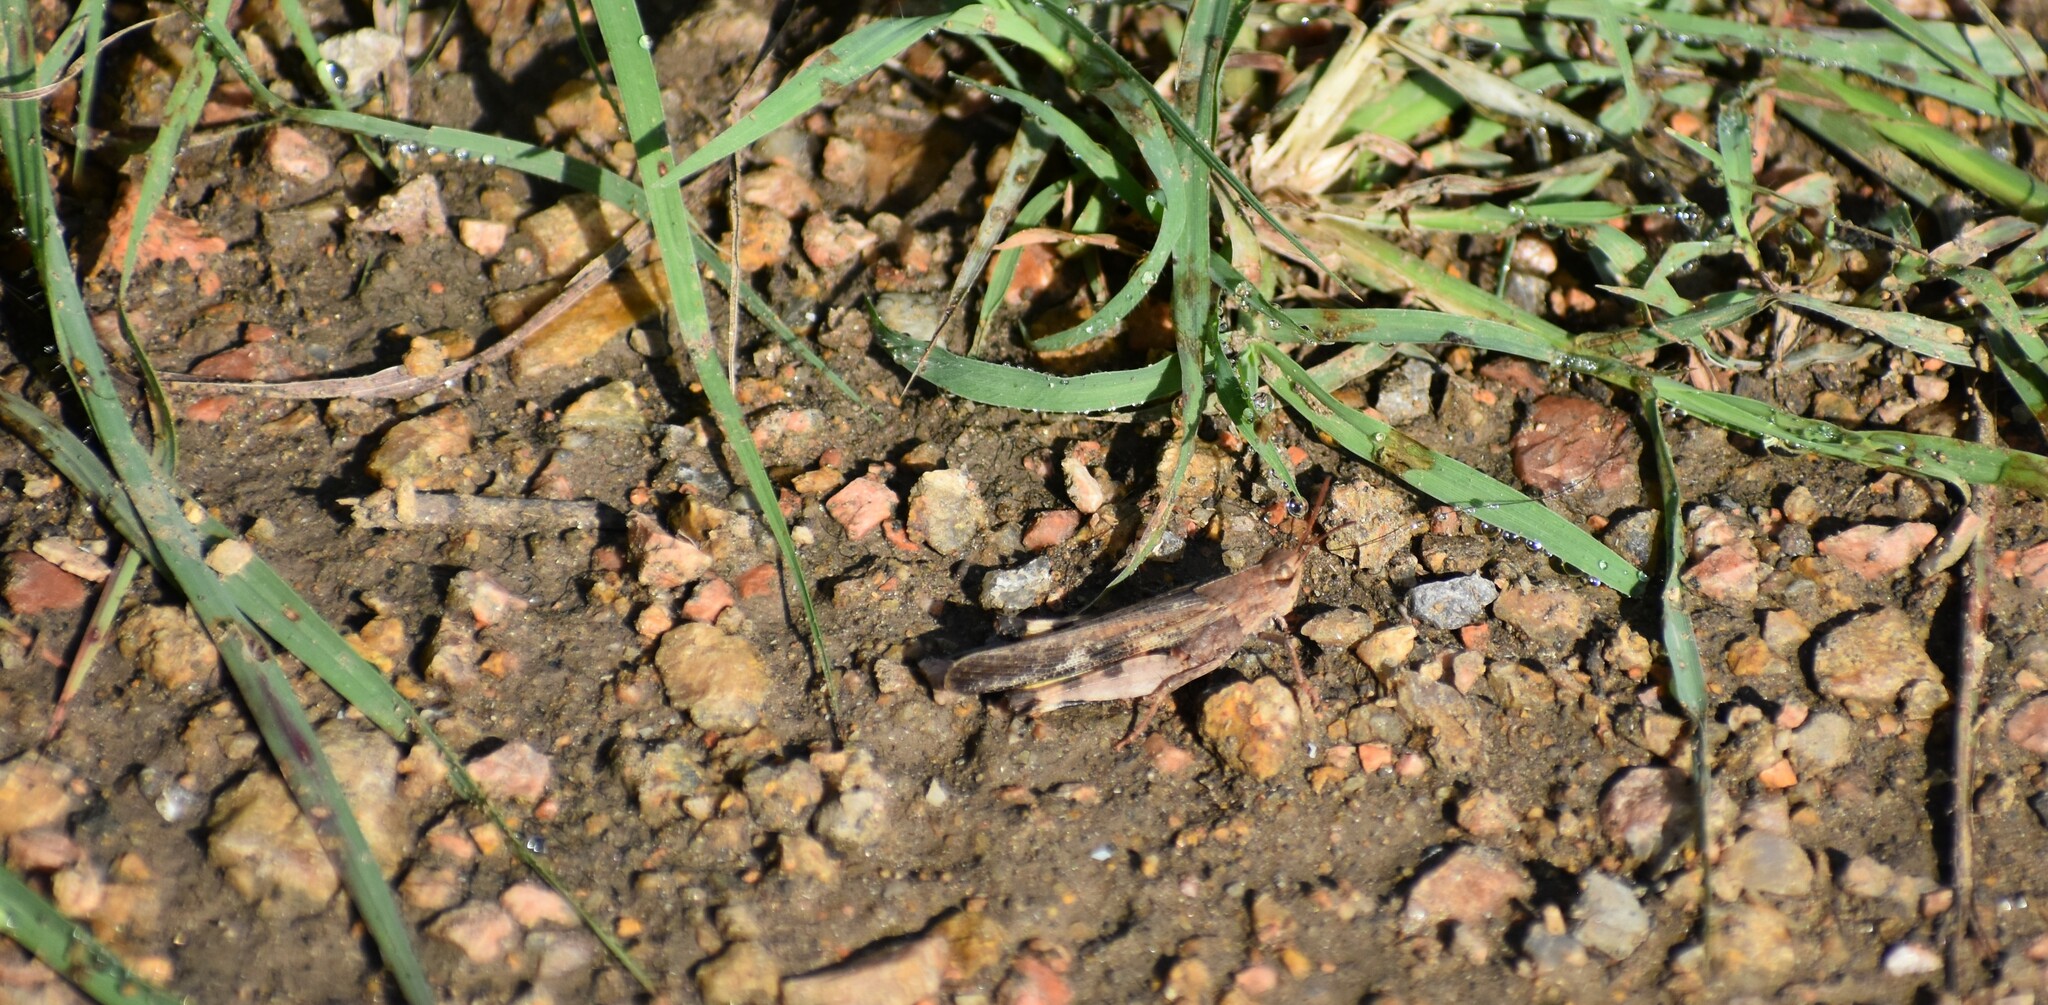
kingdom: Animalia
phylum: Arthropoda
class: Insecta
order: Orthoptera
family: Acrididae
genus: Chortophaga
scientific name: Chortophaga viridifasciata
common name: Green-striped grasshopper
